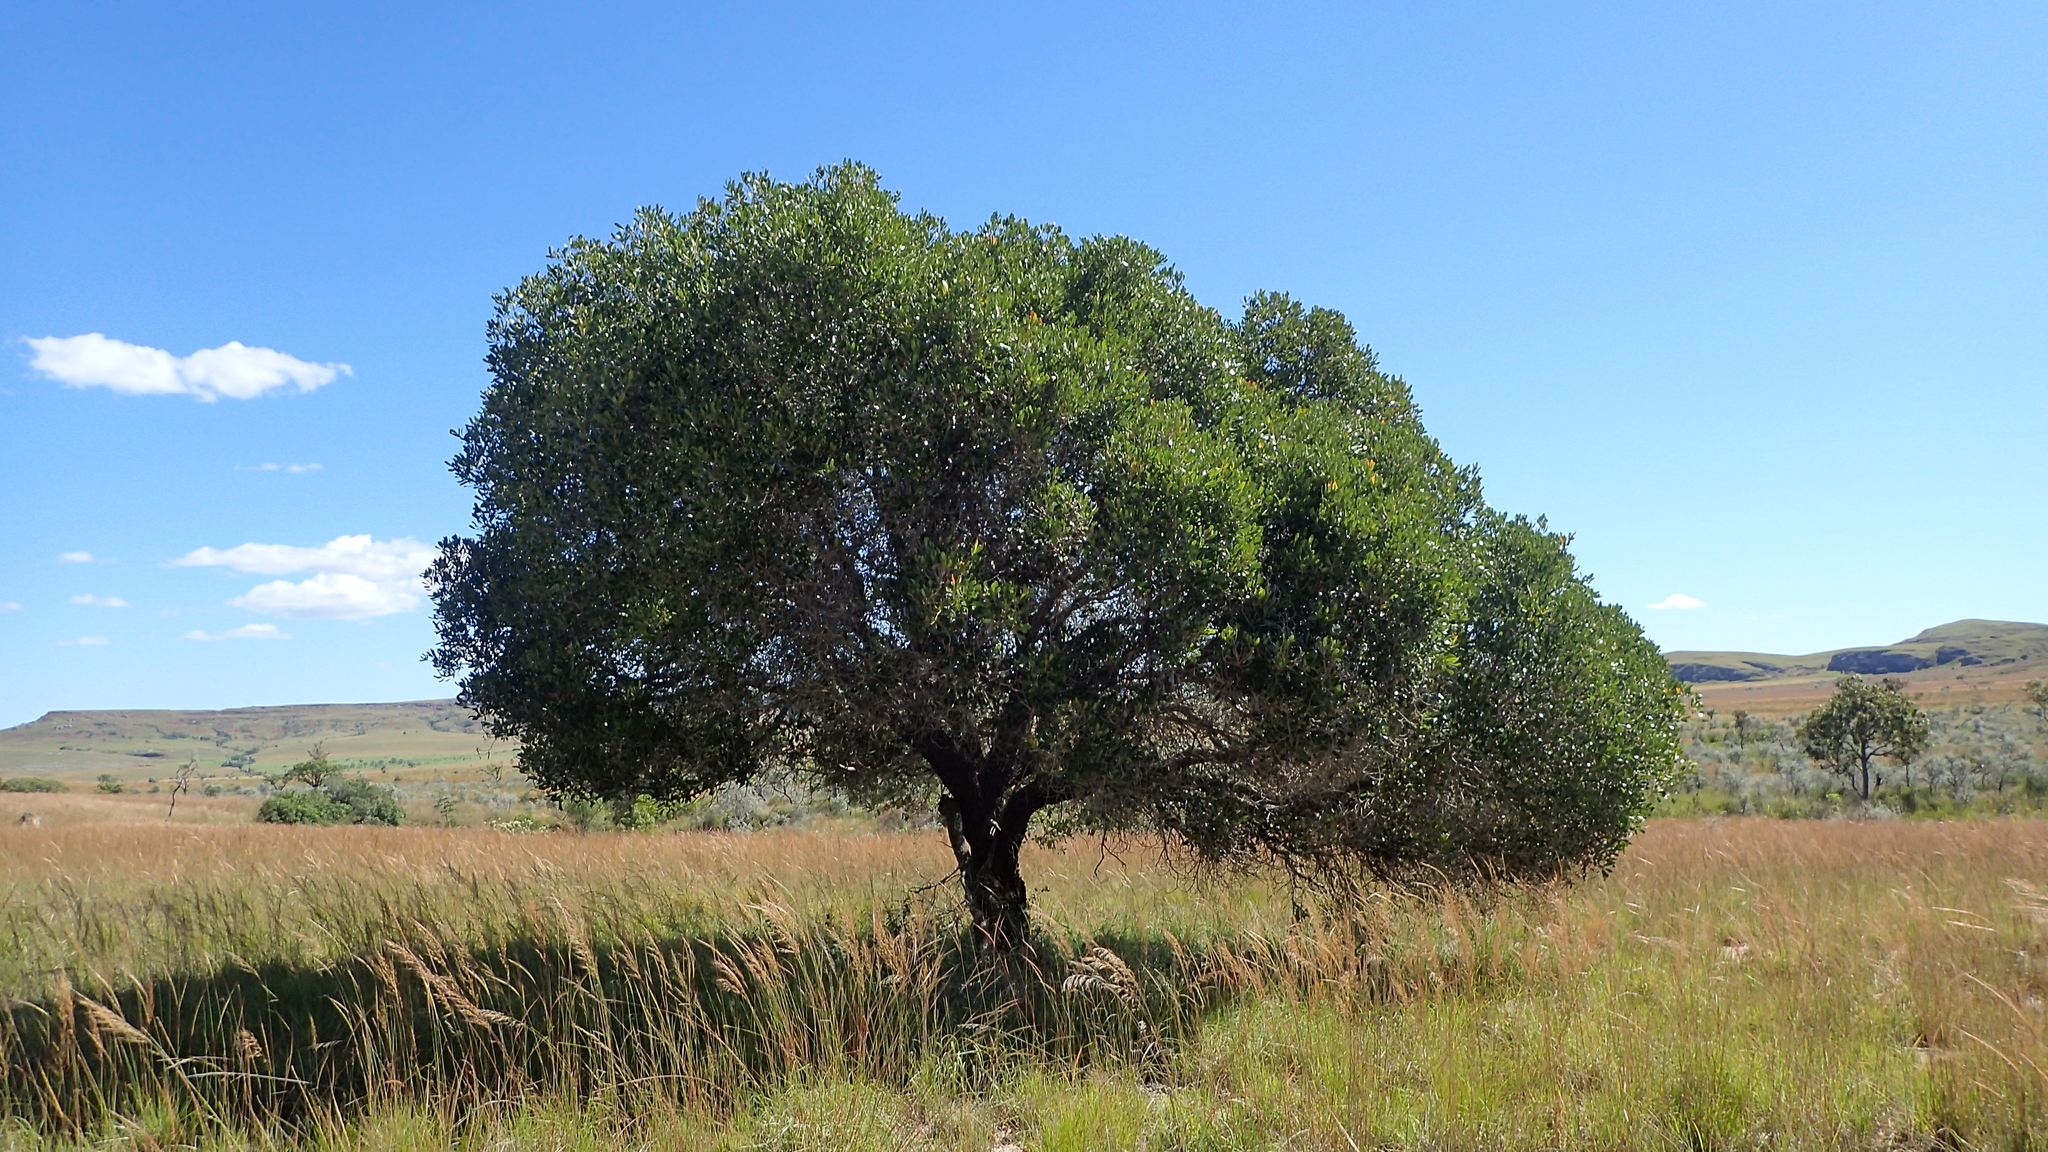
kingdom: Plantae
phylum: Tracheophyta
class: Magnoliopsida
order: Malpighiales
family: Phyllanthaceae
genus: Uapaca
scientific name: Uapaca bojeri
